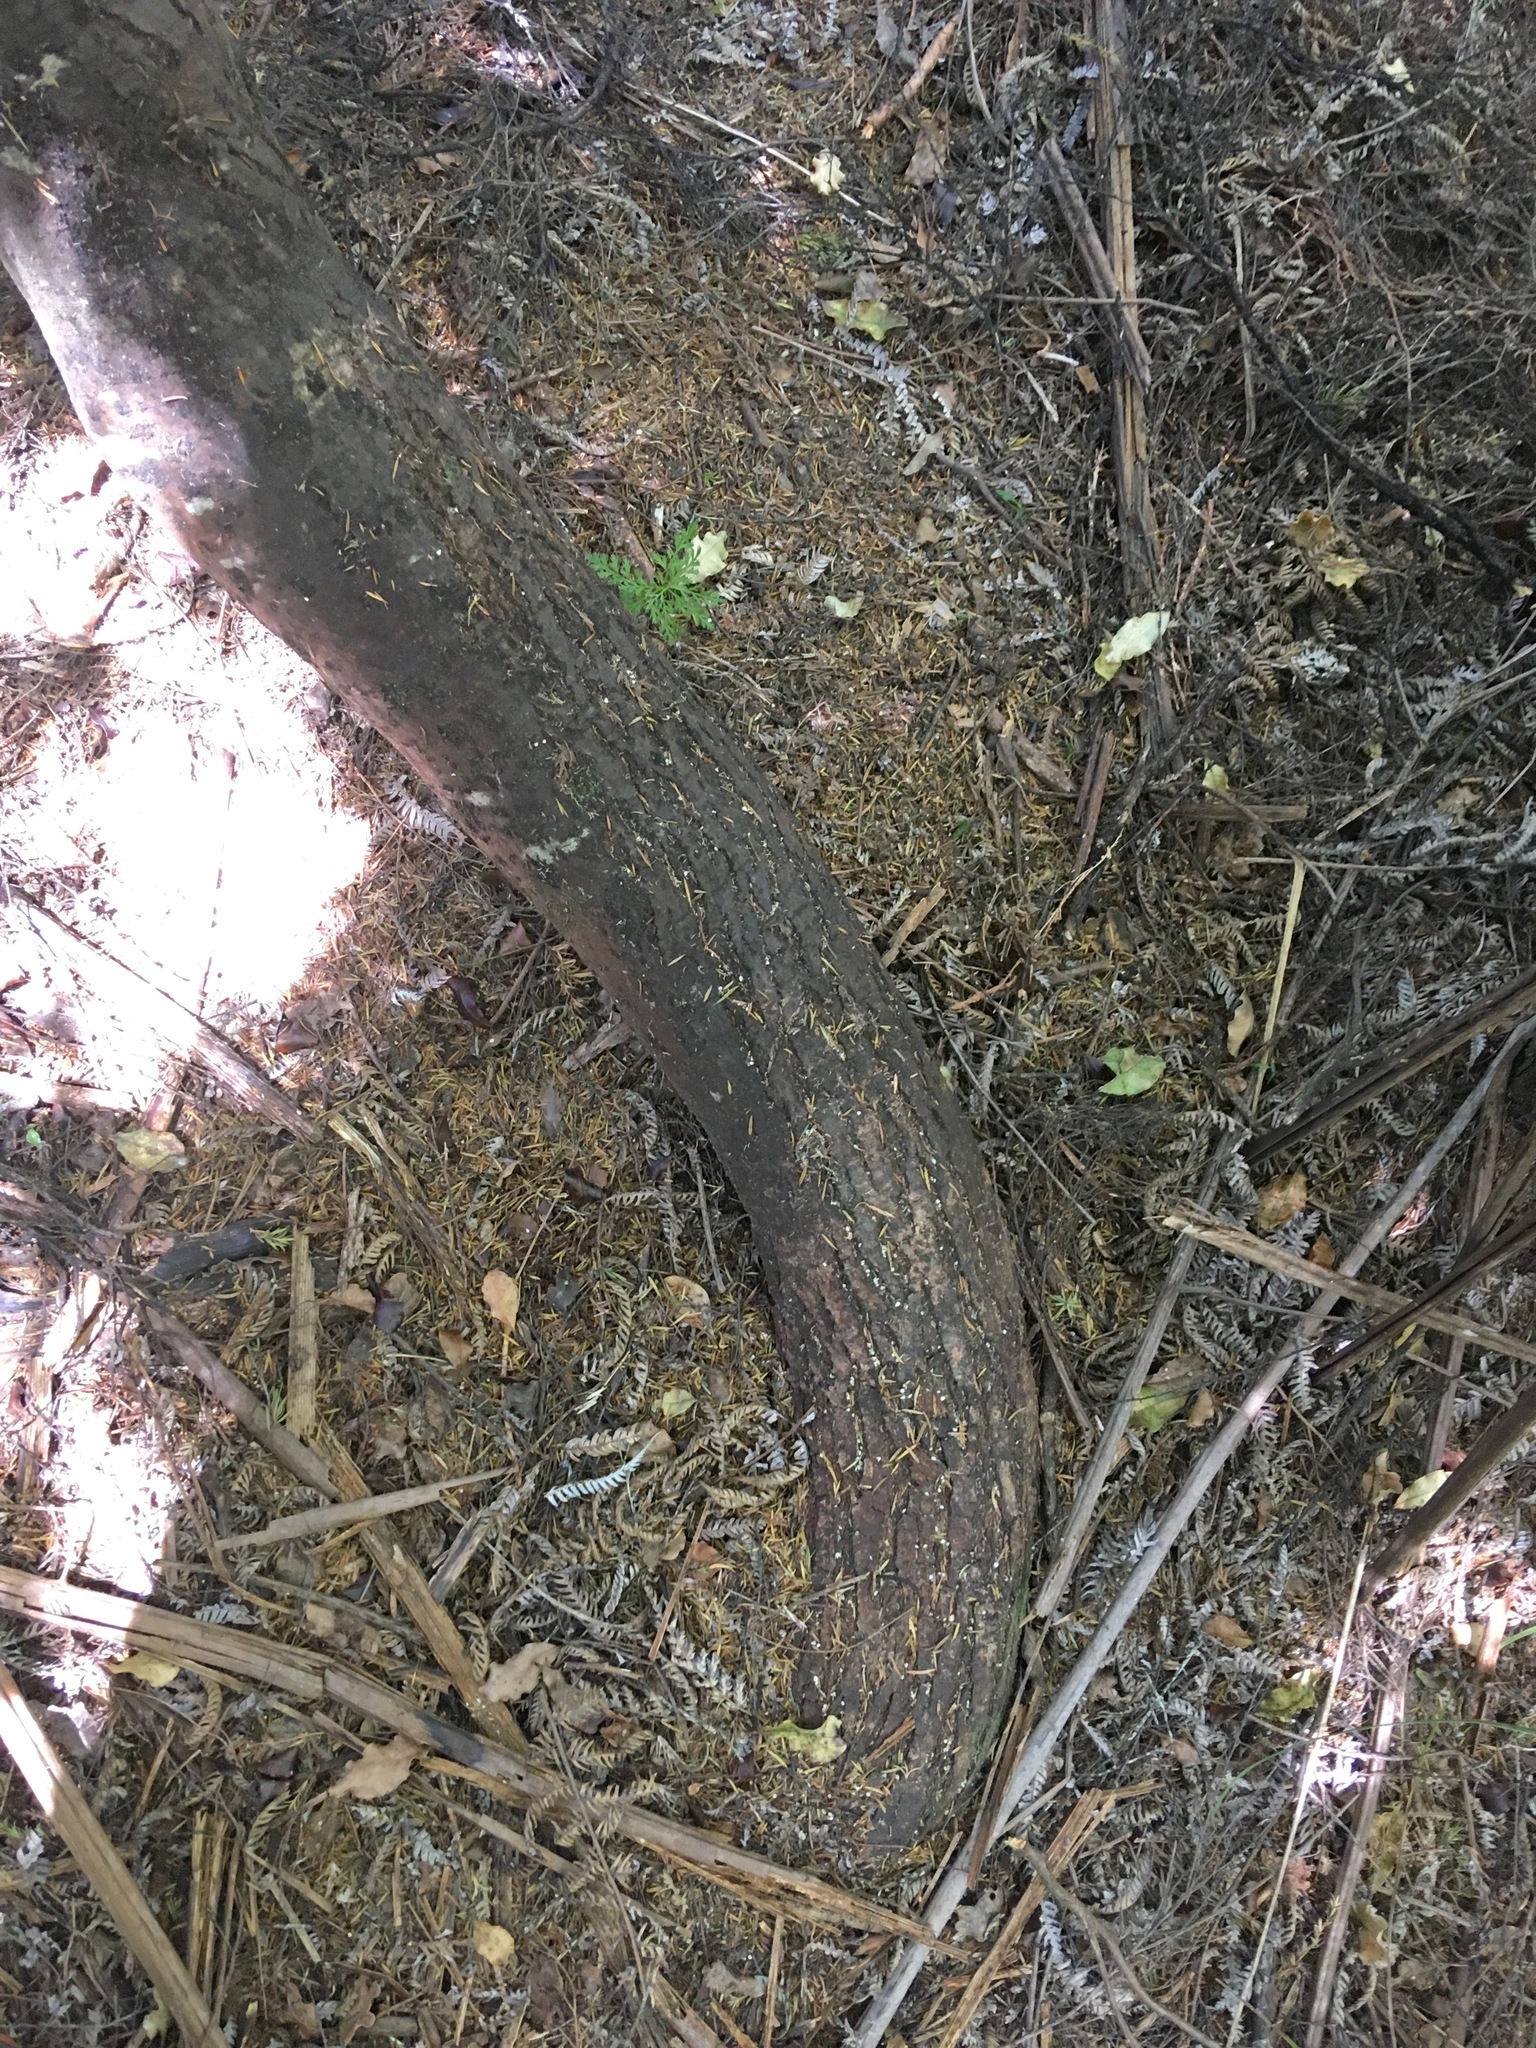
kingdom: Plantae
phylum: Tracheophyta
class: Pinopsida
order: Pinales
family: Phyllocladaceae
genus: Phyllocladus
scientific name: Phyllocladus trichomanoides
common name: Celery pine
